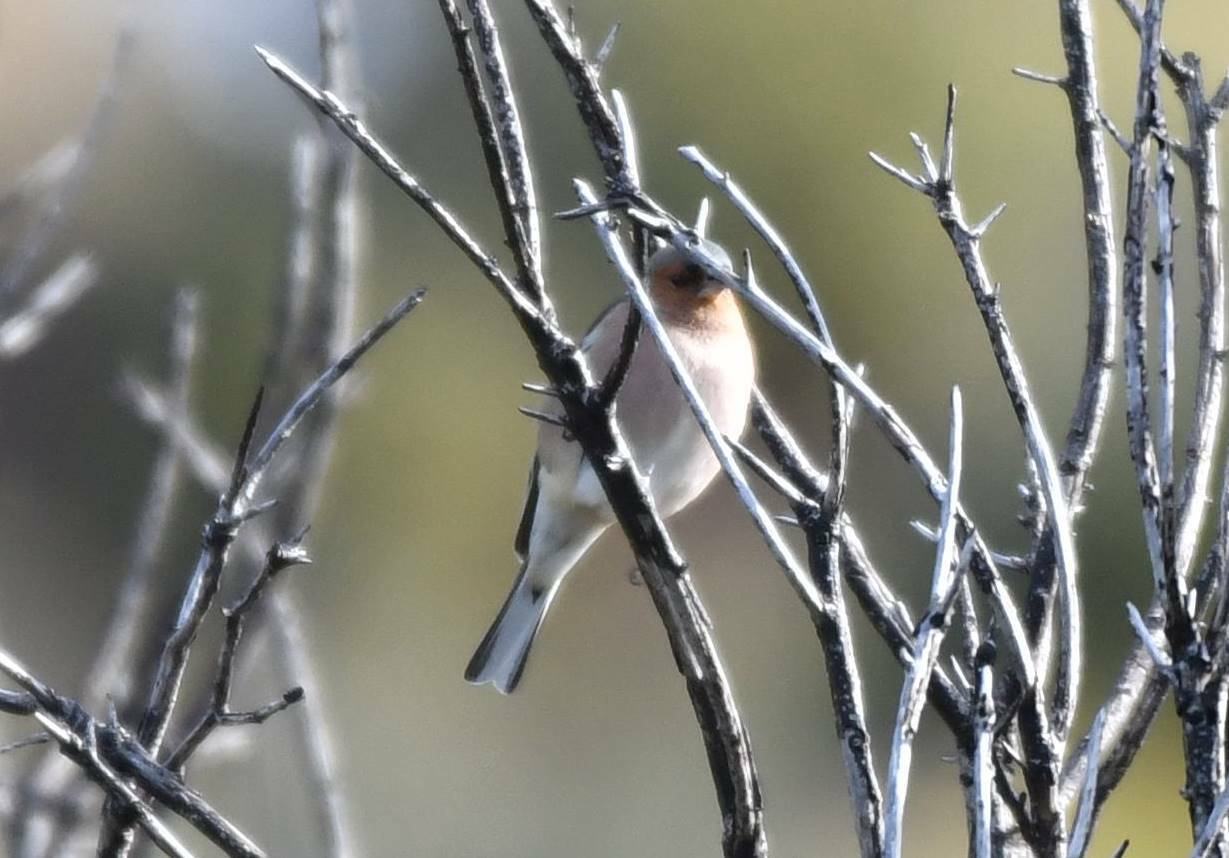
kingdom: Animalia
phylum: Chordata
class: Aves
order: Passeriformes
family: Fringillidae
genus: Fringilla
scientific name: Fringilla coelebs
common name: Common chaffinch
